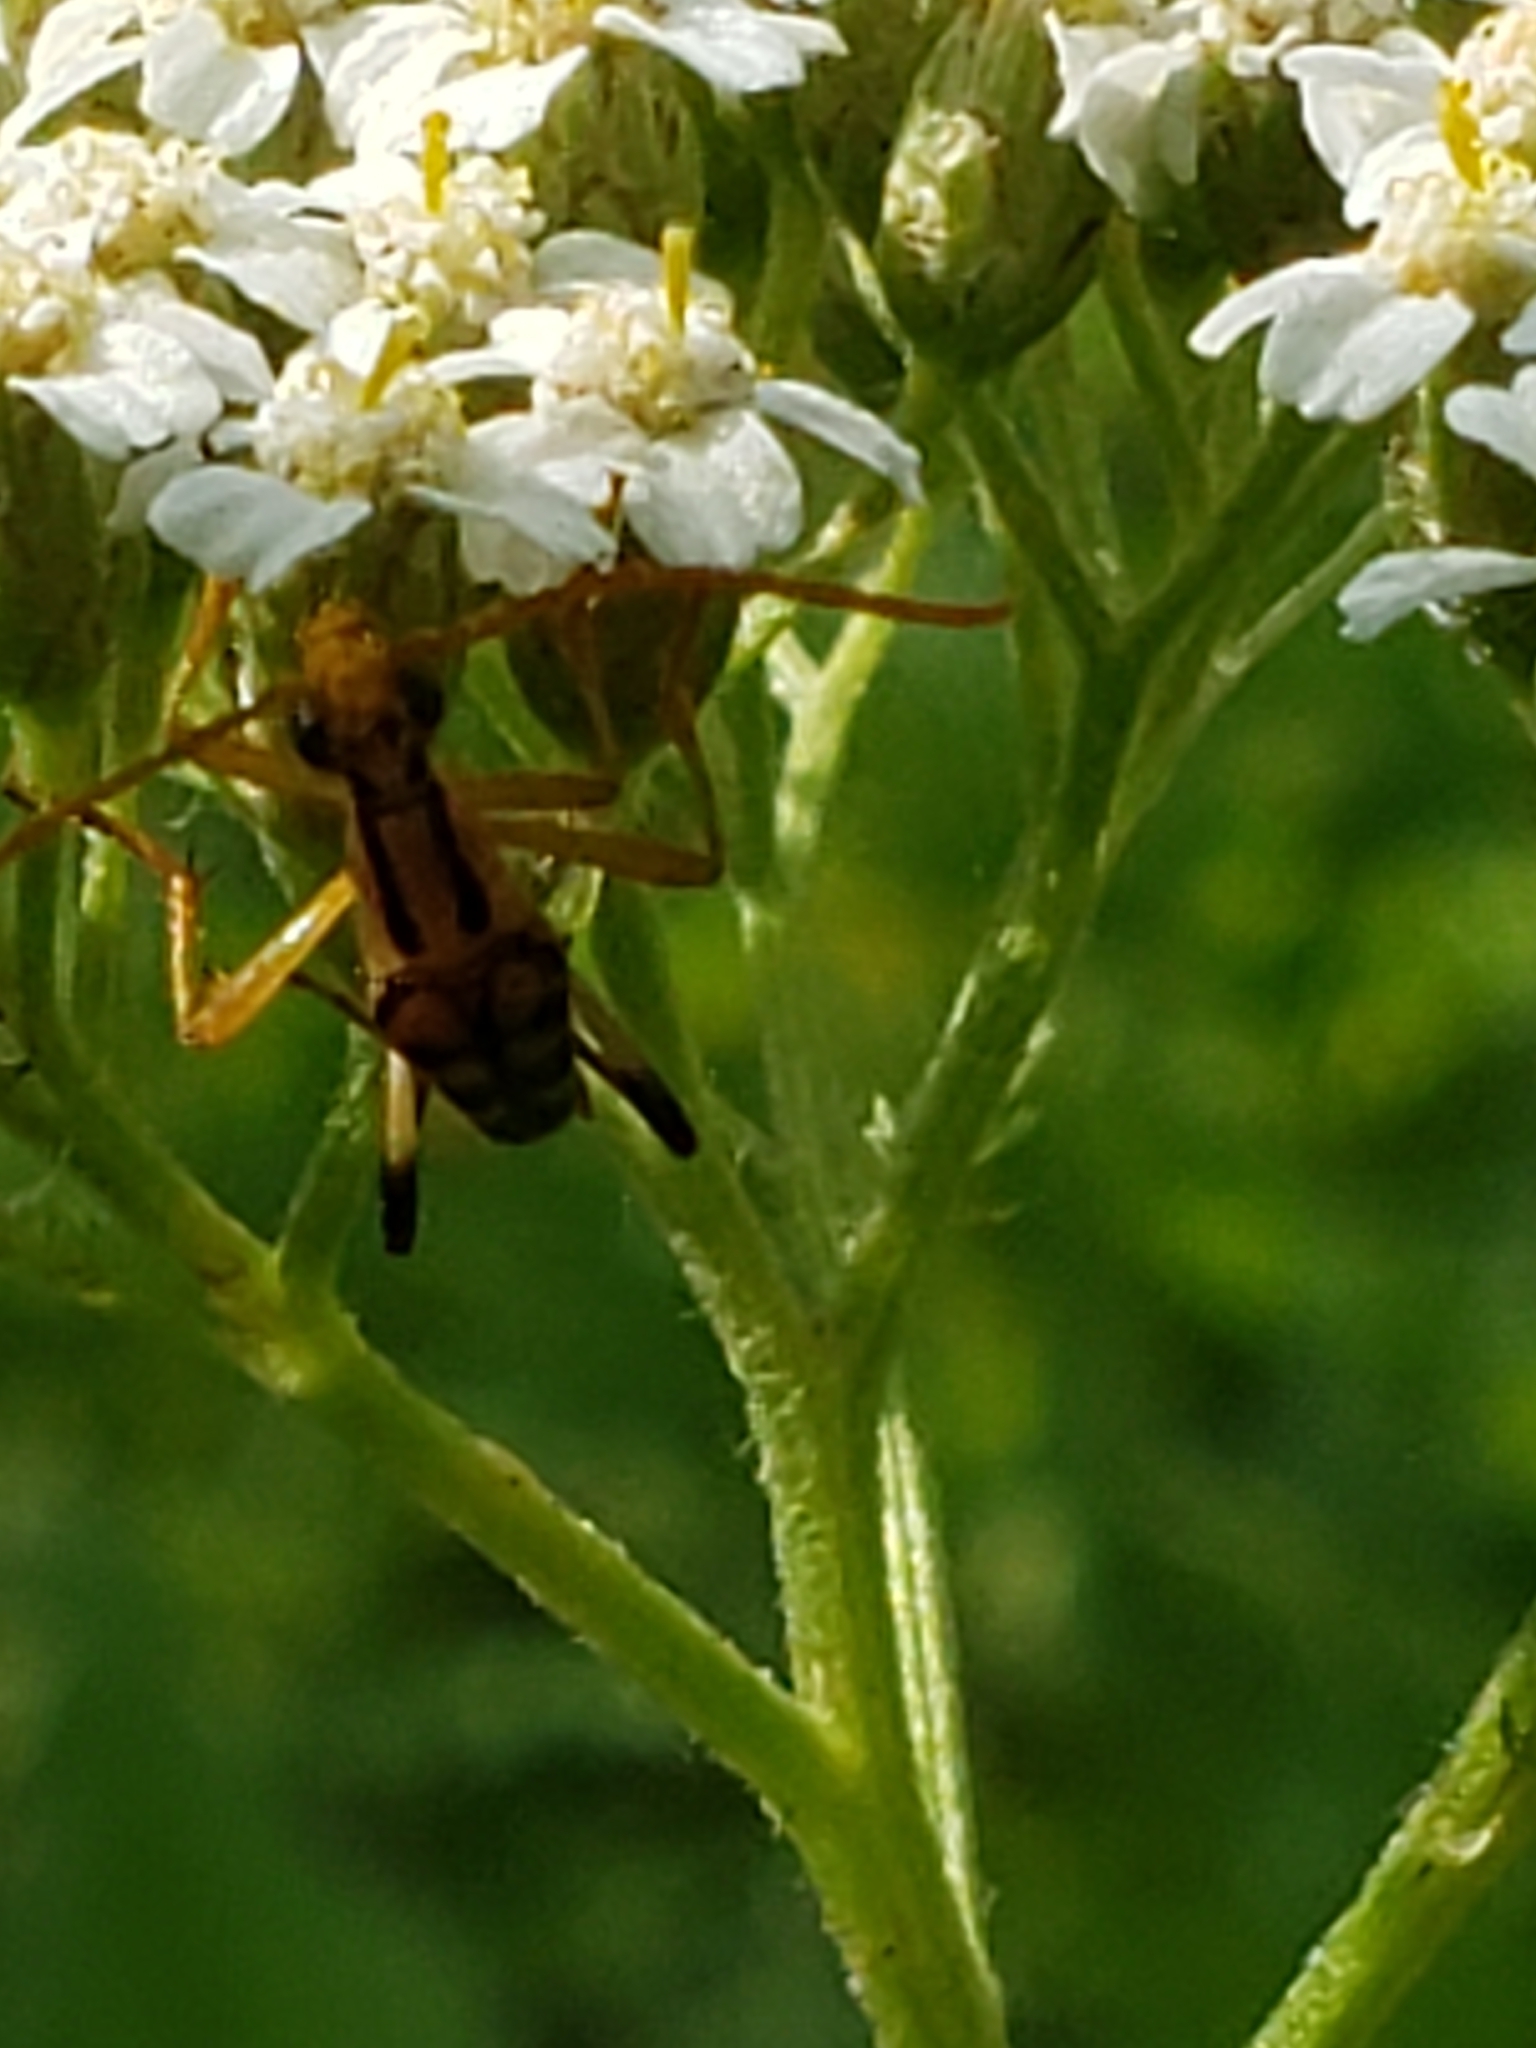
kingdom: Animalia
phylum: Arthropoda
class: Insecta
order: Coleoptera
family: Cerambycidae
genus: Strangalia
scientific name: Strangalia luteicornis
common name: Yellow-horned flower longhorn beetle
